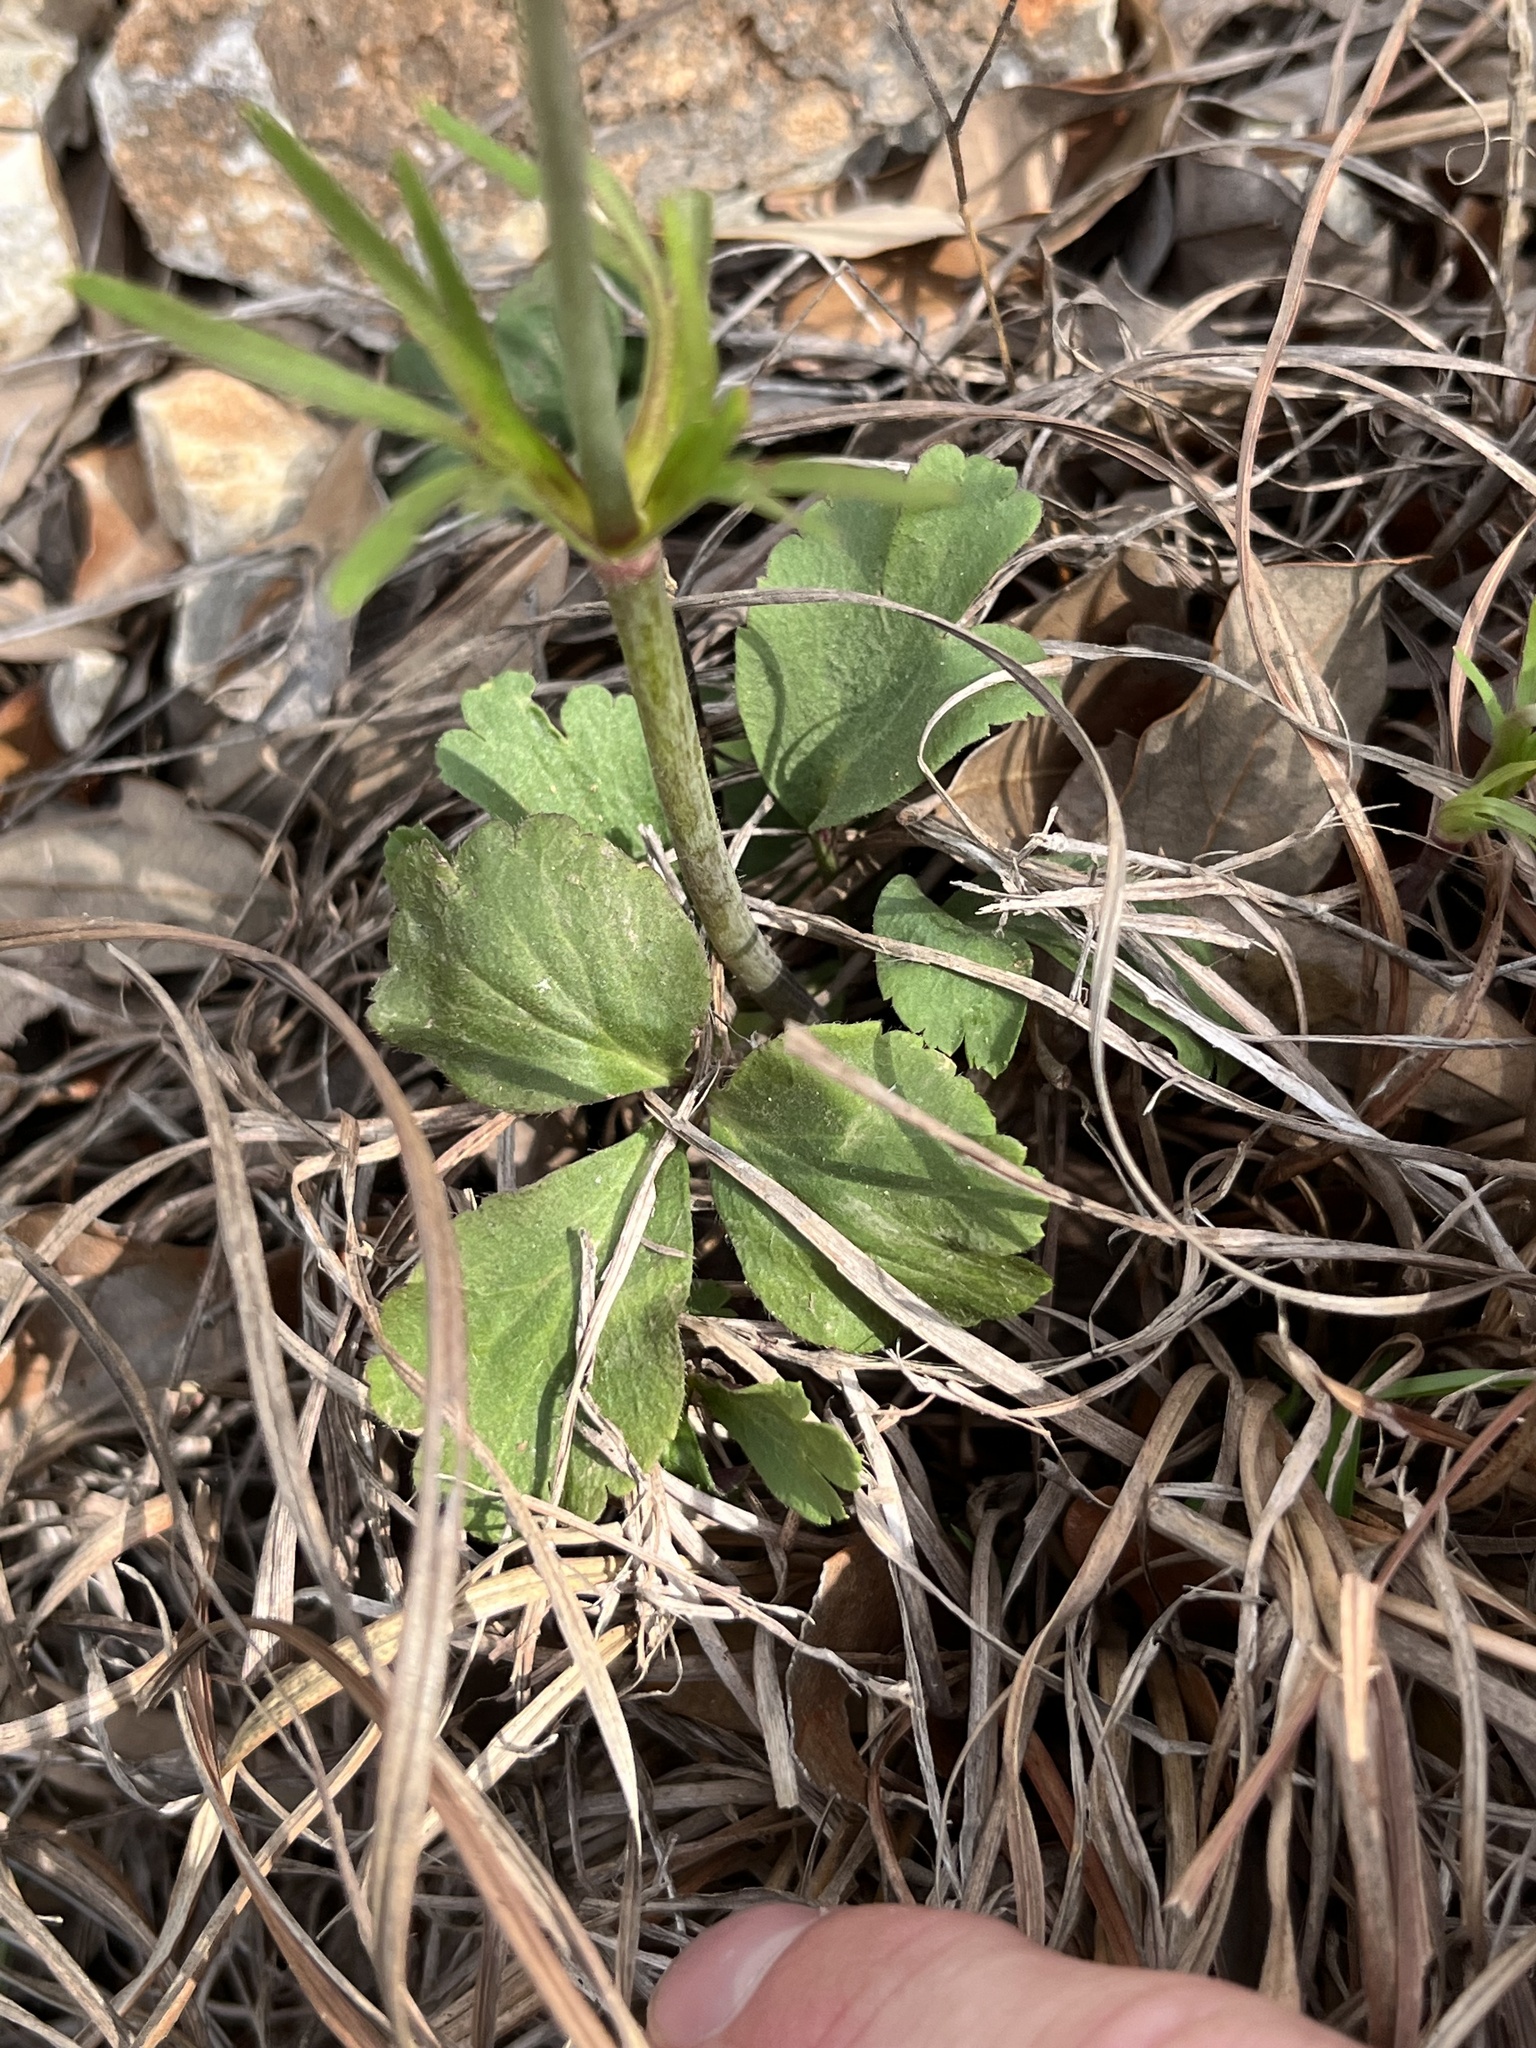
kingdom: Plantae
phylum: Tracheophyta
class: Magnoliopsida
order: Ranunculales
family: Ranunculaceae
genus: Anemone
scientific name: Anemone berlandieri
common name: Ten-petal anemone
